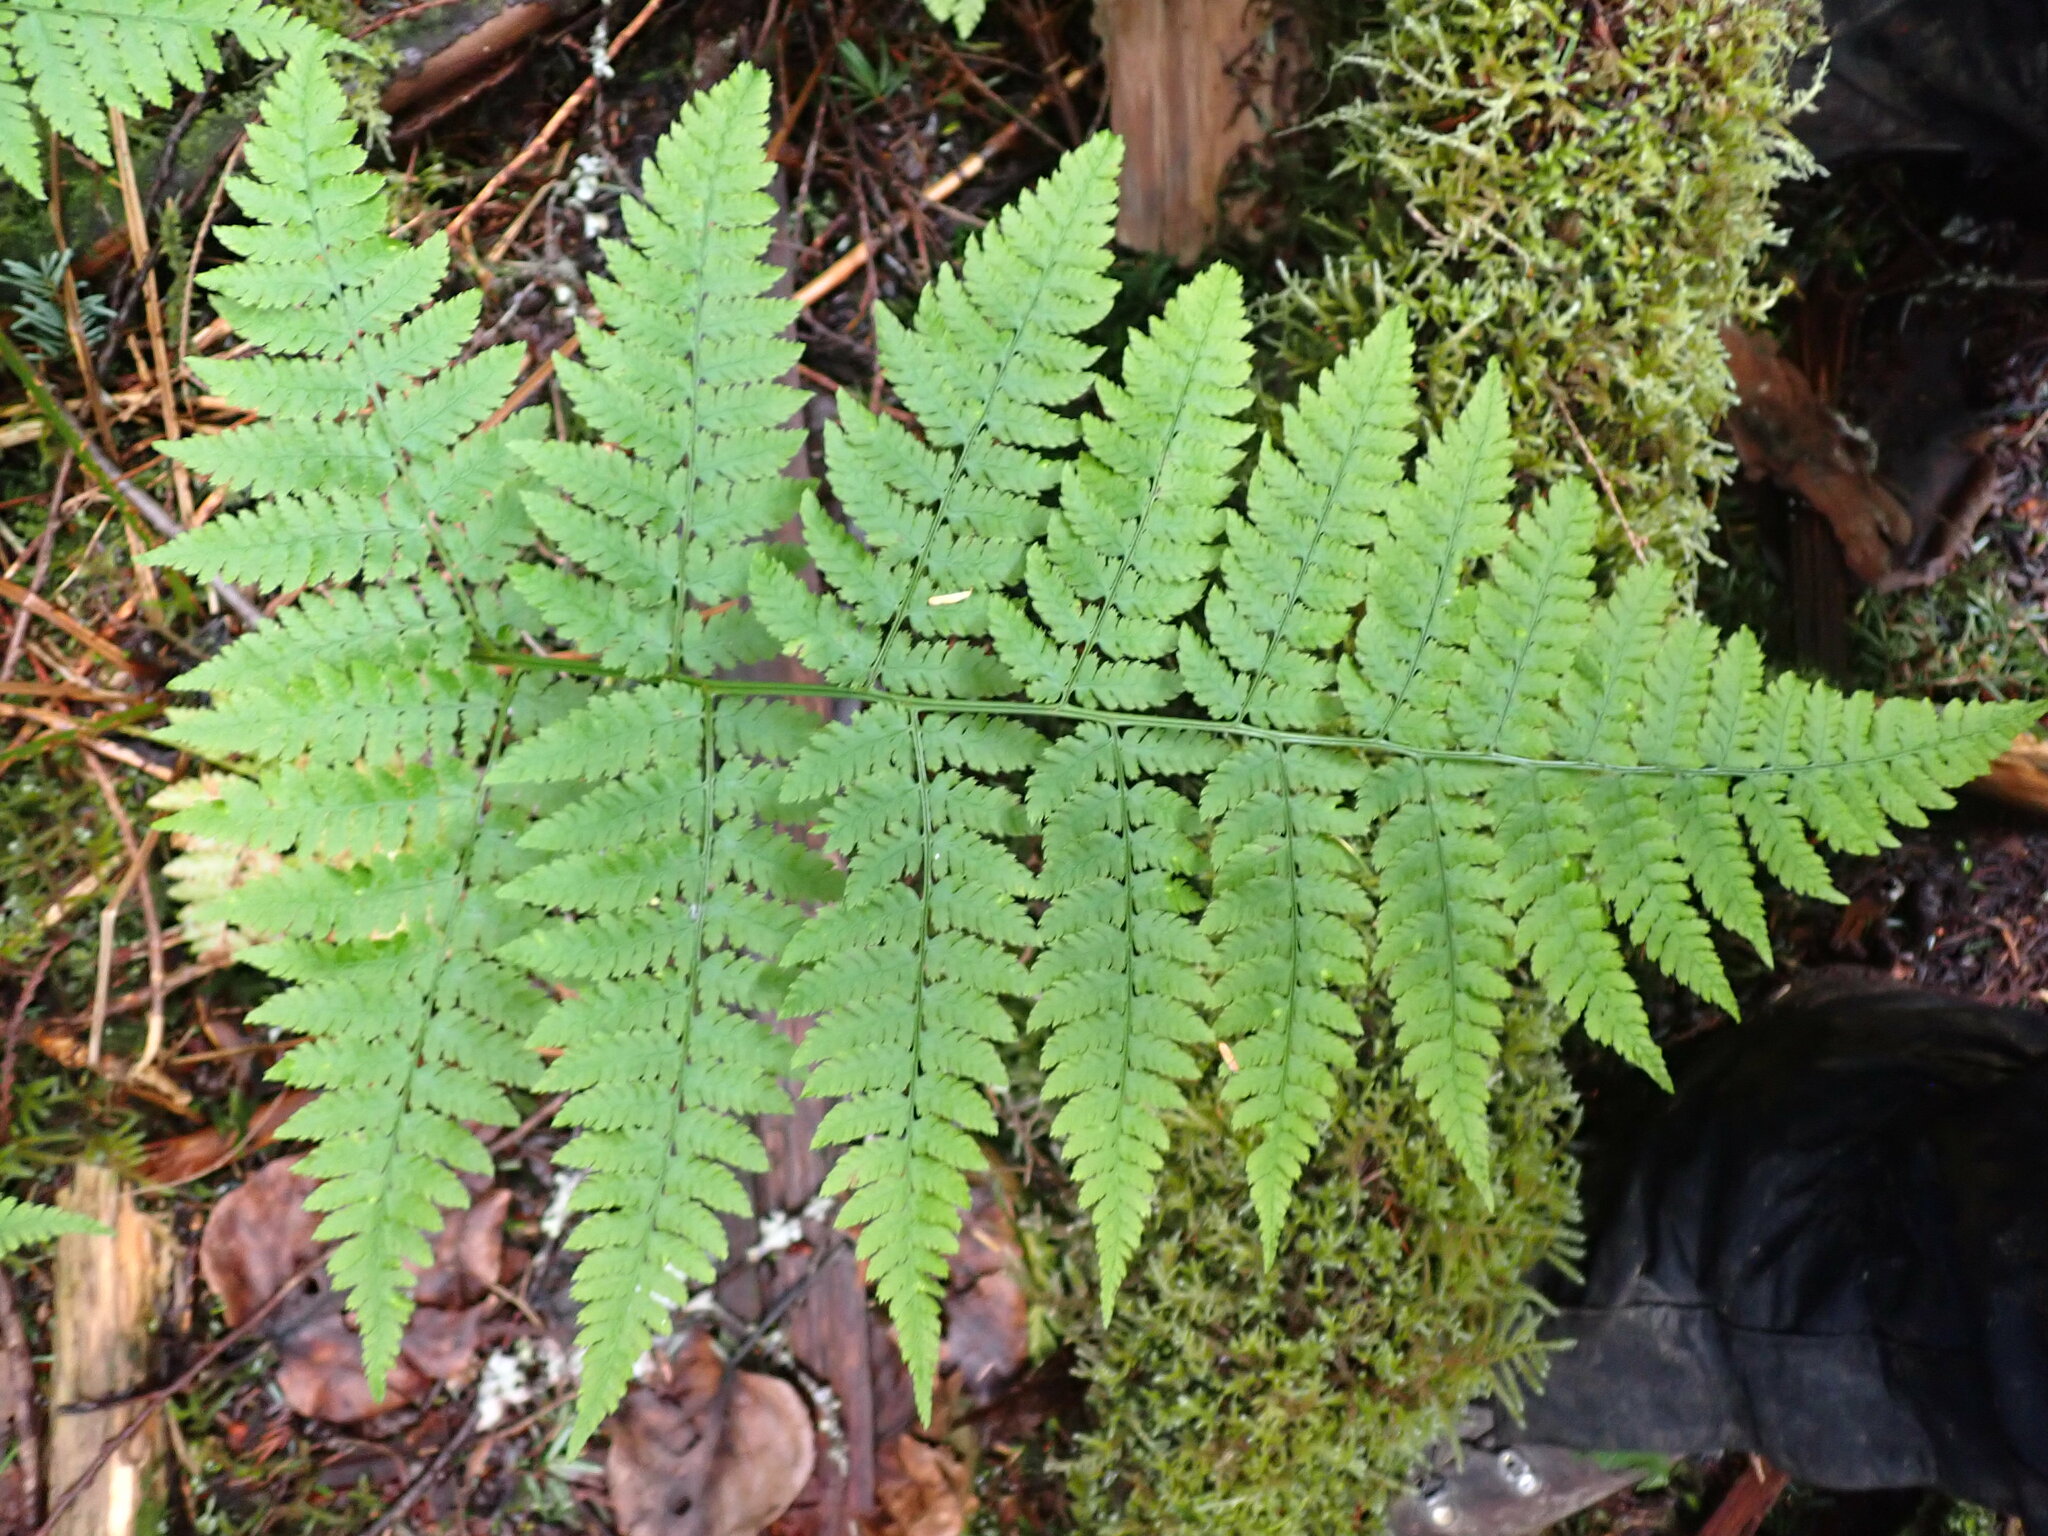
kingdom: Plantae
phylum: Tracheophyta
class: Polypodiopsida
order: Polypodiales
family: Dryopteridaceae
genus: Dryopteris
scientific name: Dryopteris expansa
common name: Northern buckler fern
